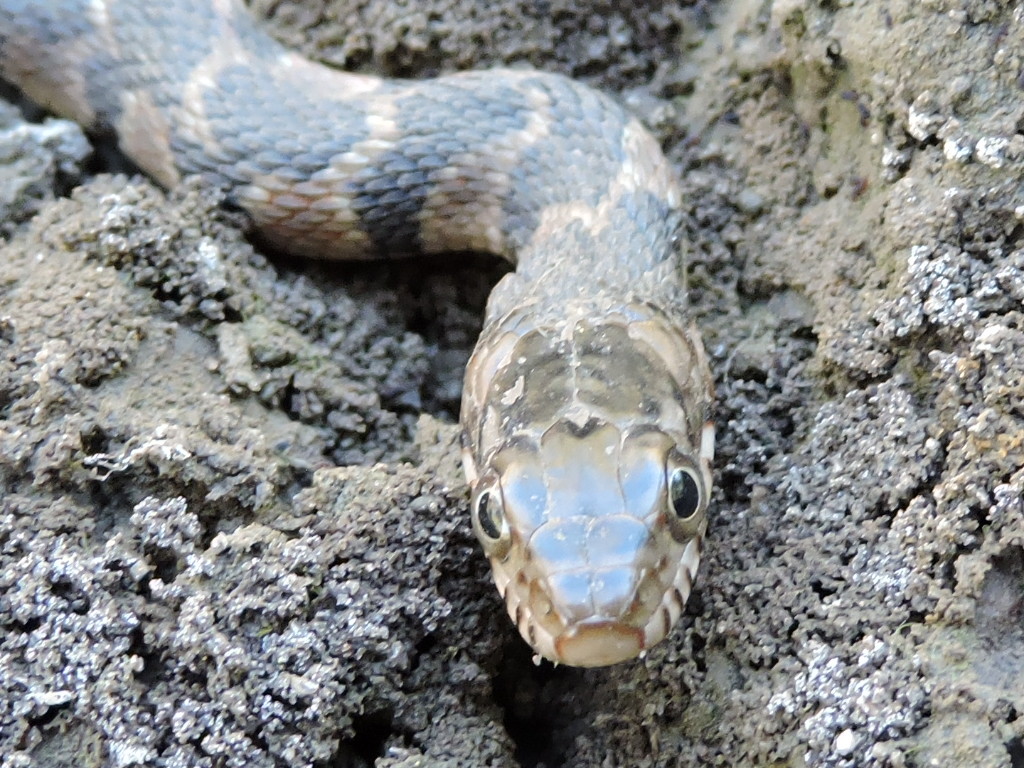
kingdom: Animalia
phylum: Chordata
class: Squamata
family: Colubridae
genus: Nerodia
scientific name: Nerodia erythrogaster
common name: Plainbelly water snake
